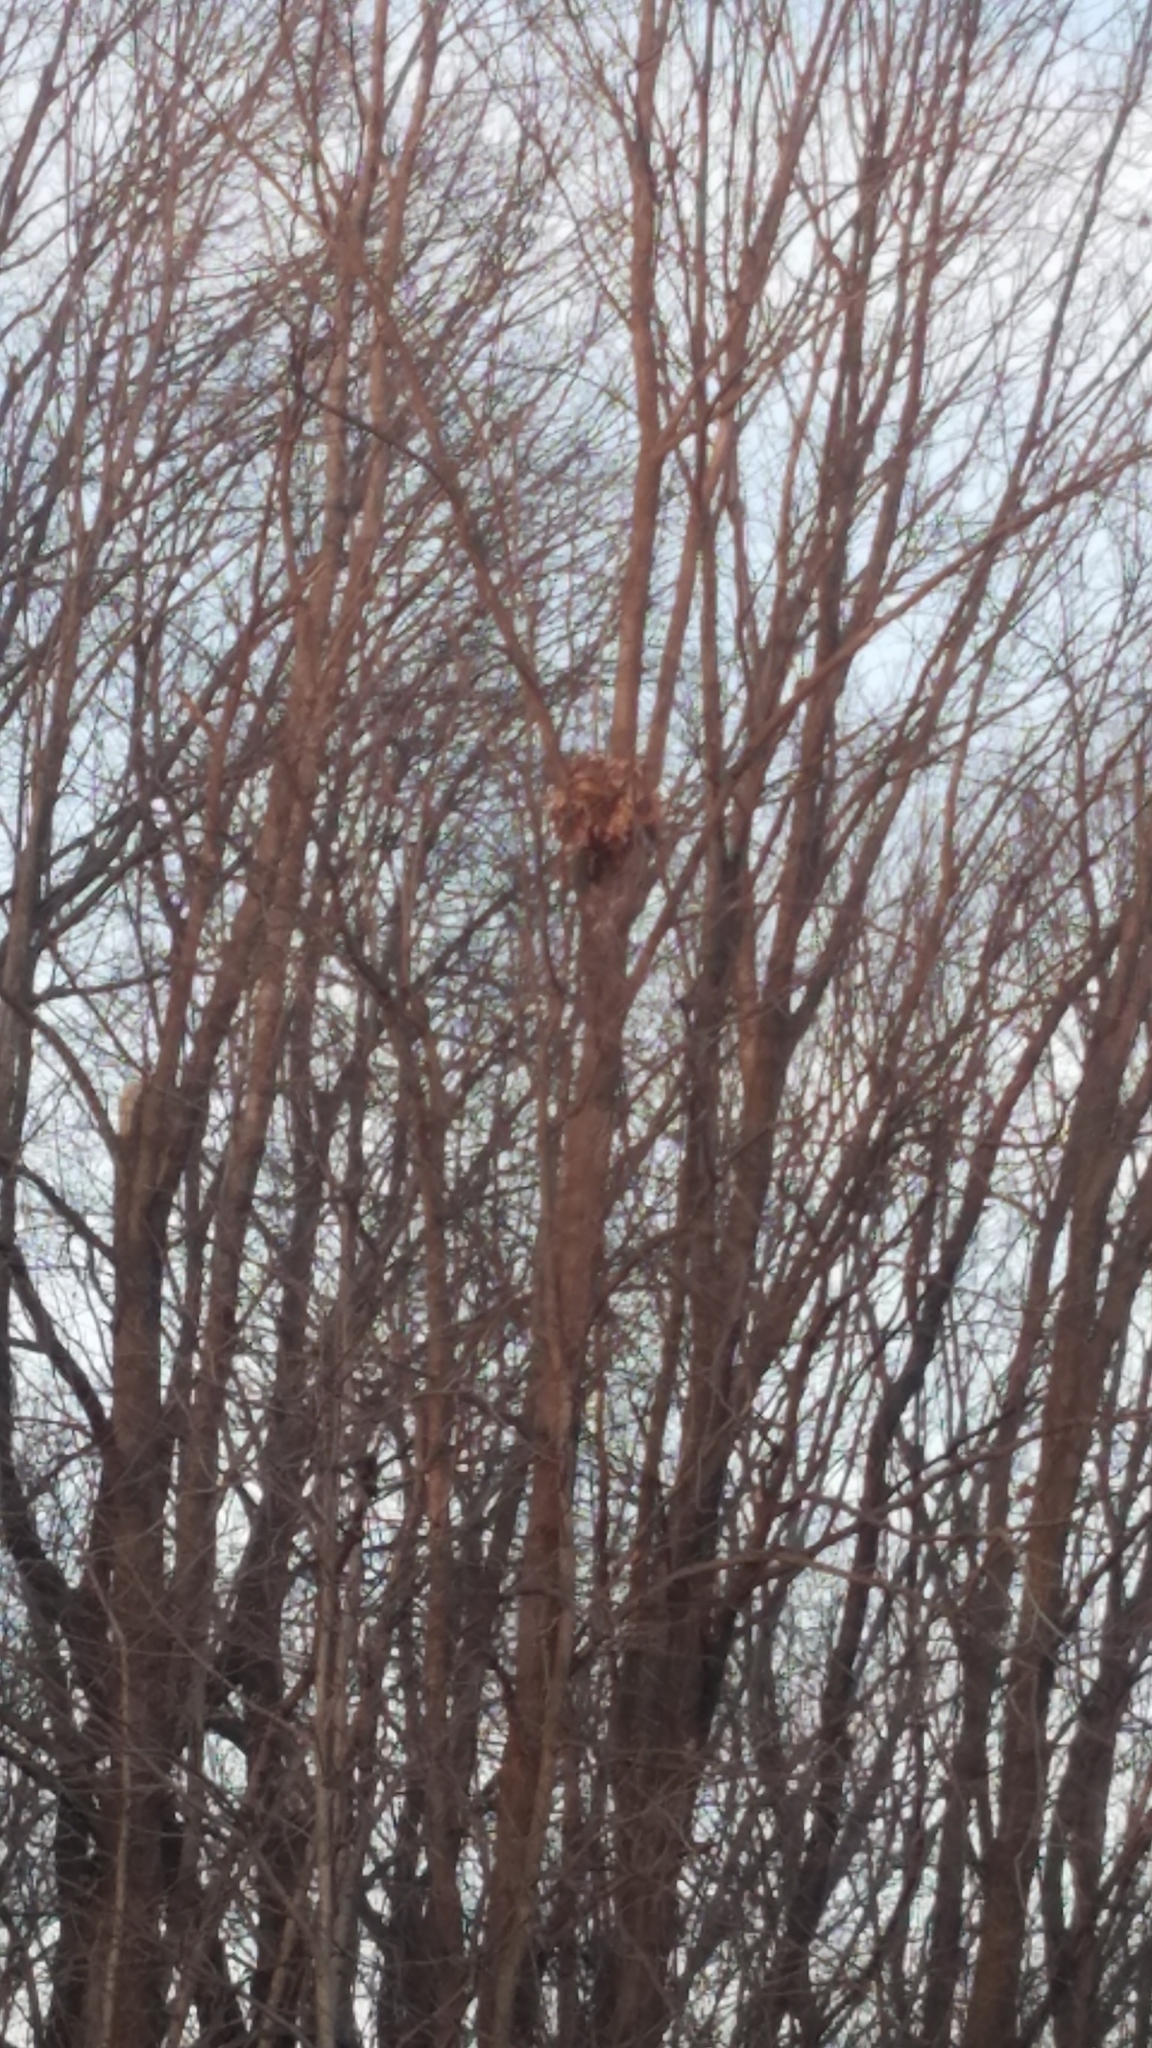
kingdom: Animalia
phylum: Chordata
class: Mammalia
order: Rodentia
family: Sciuridae
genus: Sciurus
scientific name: Sciurus carolinensis
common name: Eastern gray squirrel
